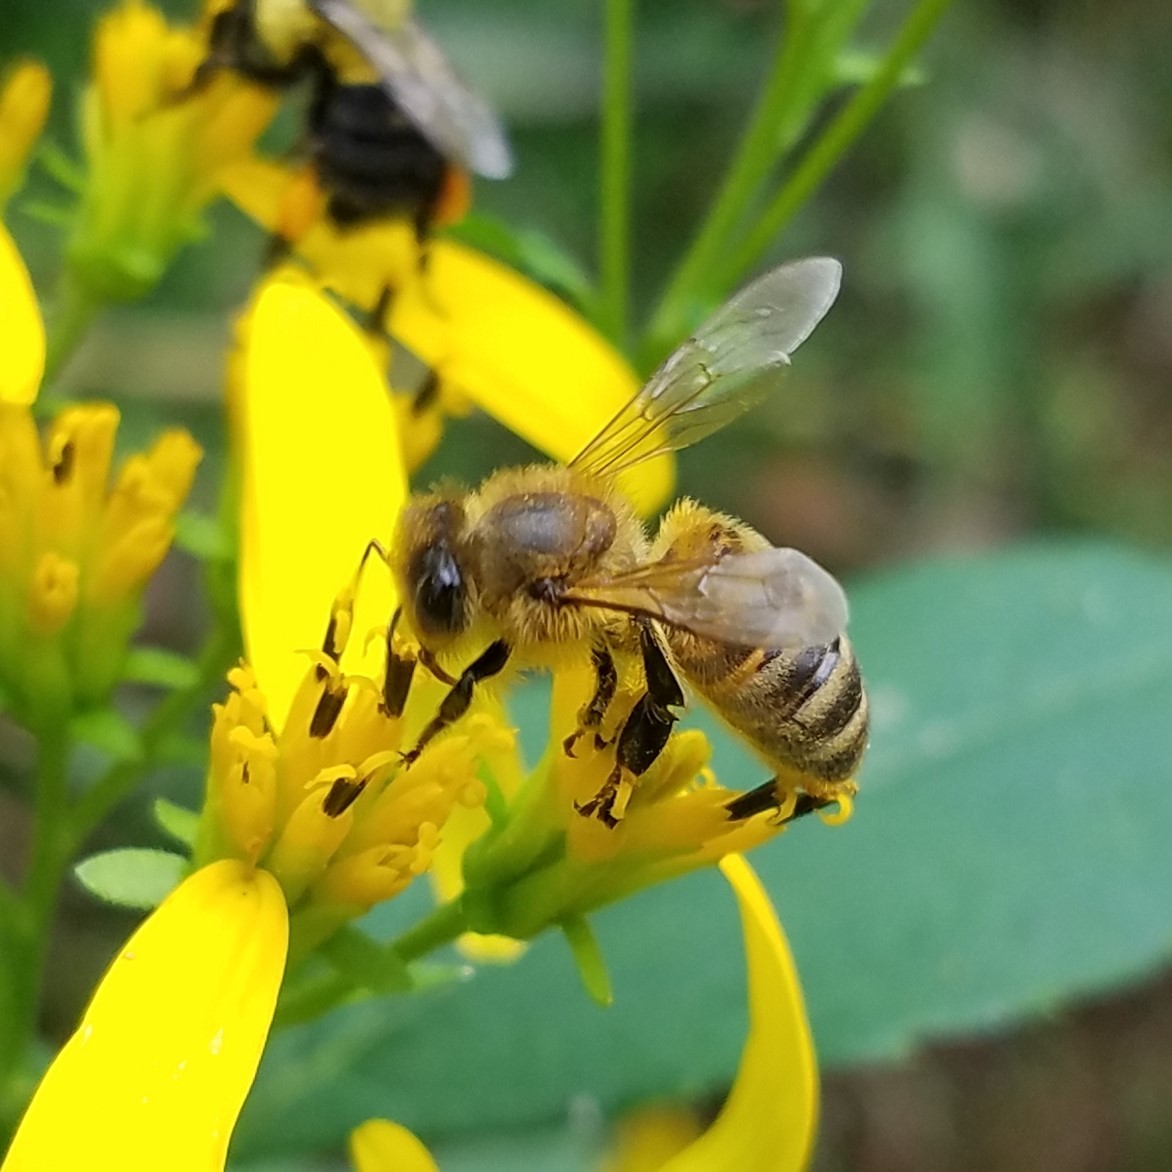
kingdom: Animalia
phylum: Arthropoda
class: Insecta
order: Hymenoptera
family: Apidae
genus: Apis
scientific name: Apis mellifera
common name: Honey bee
